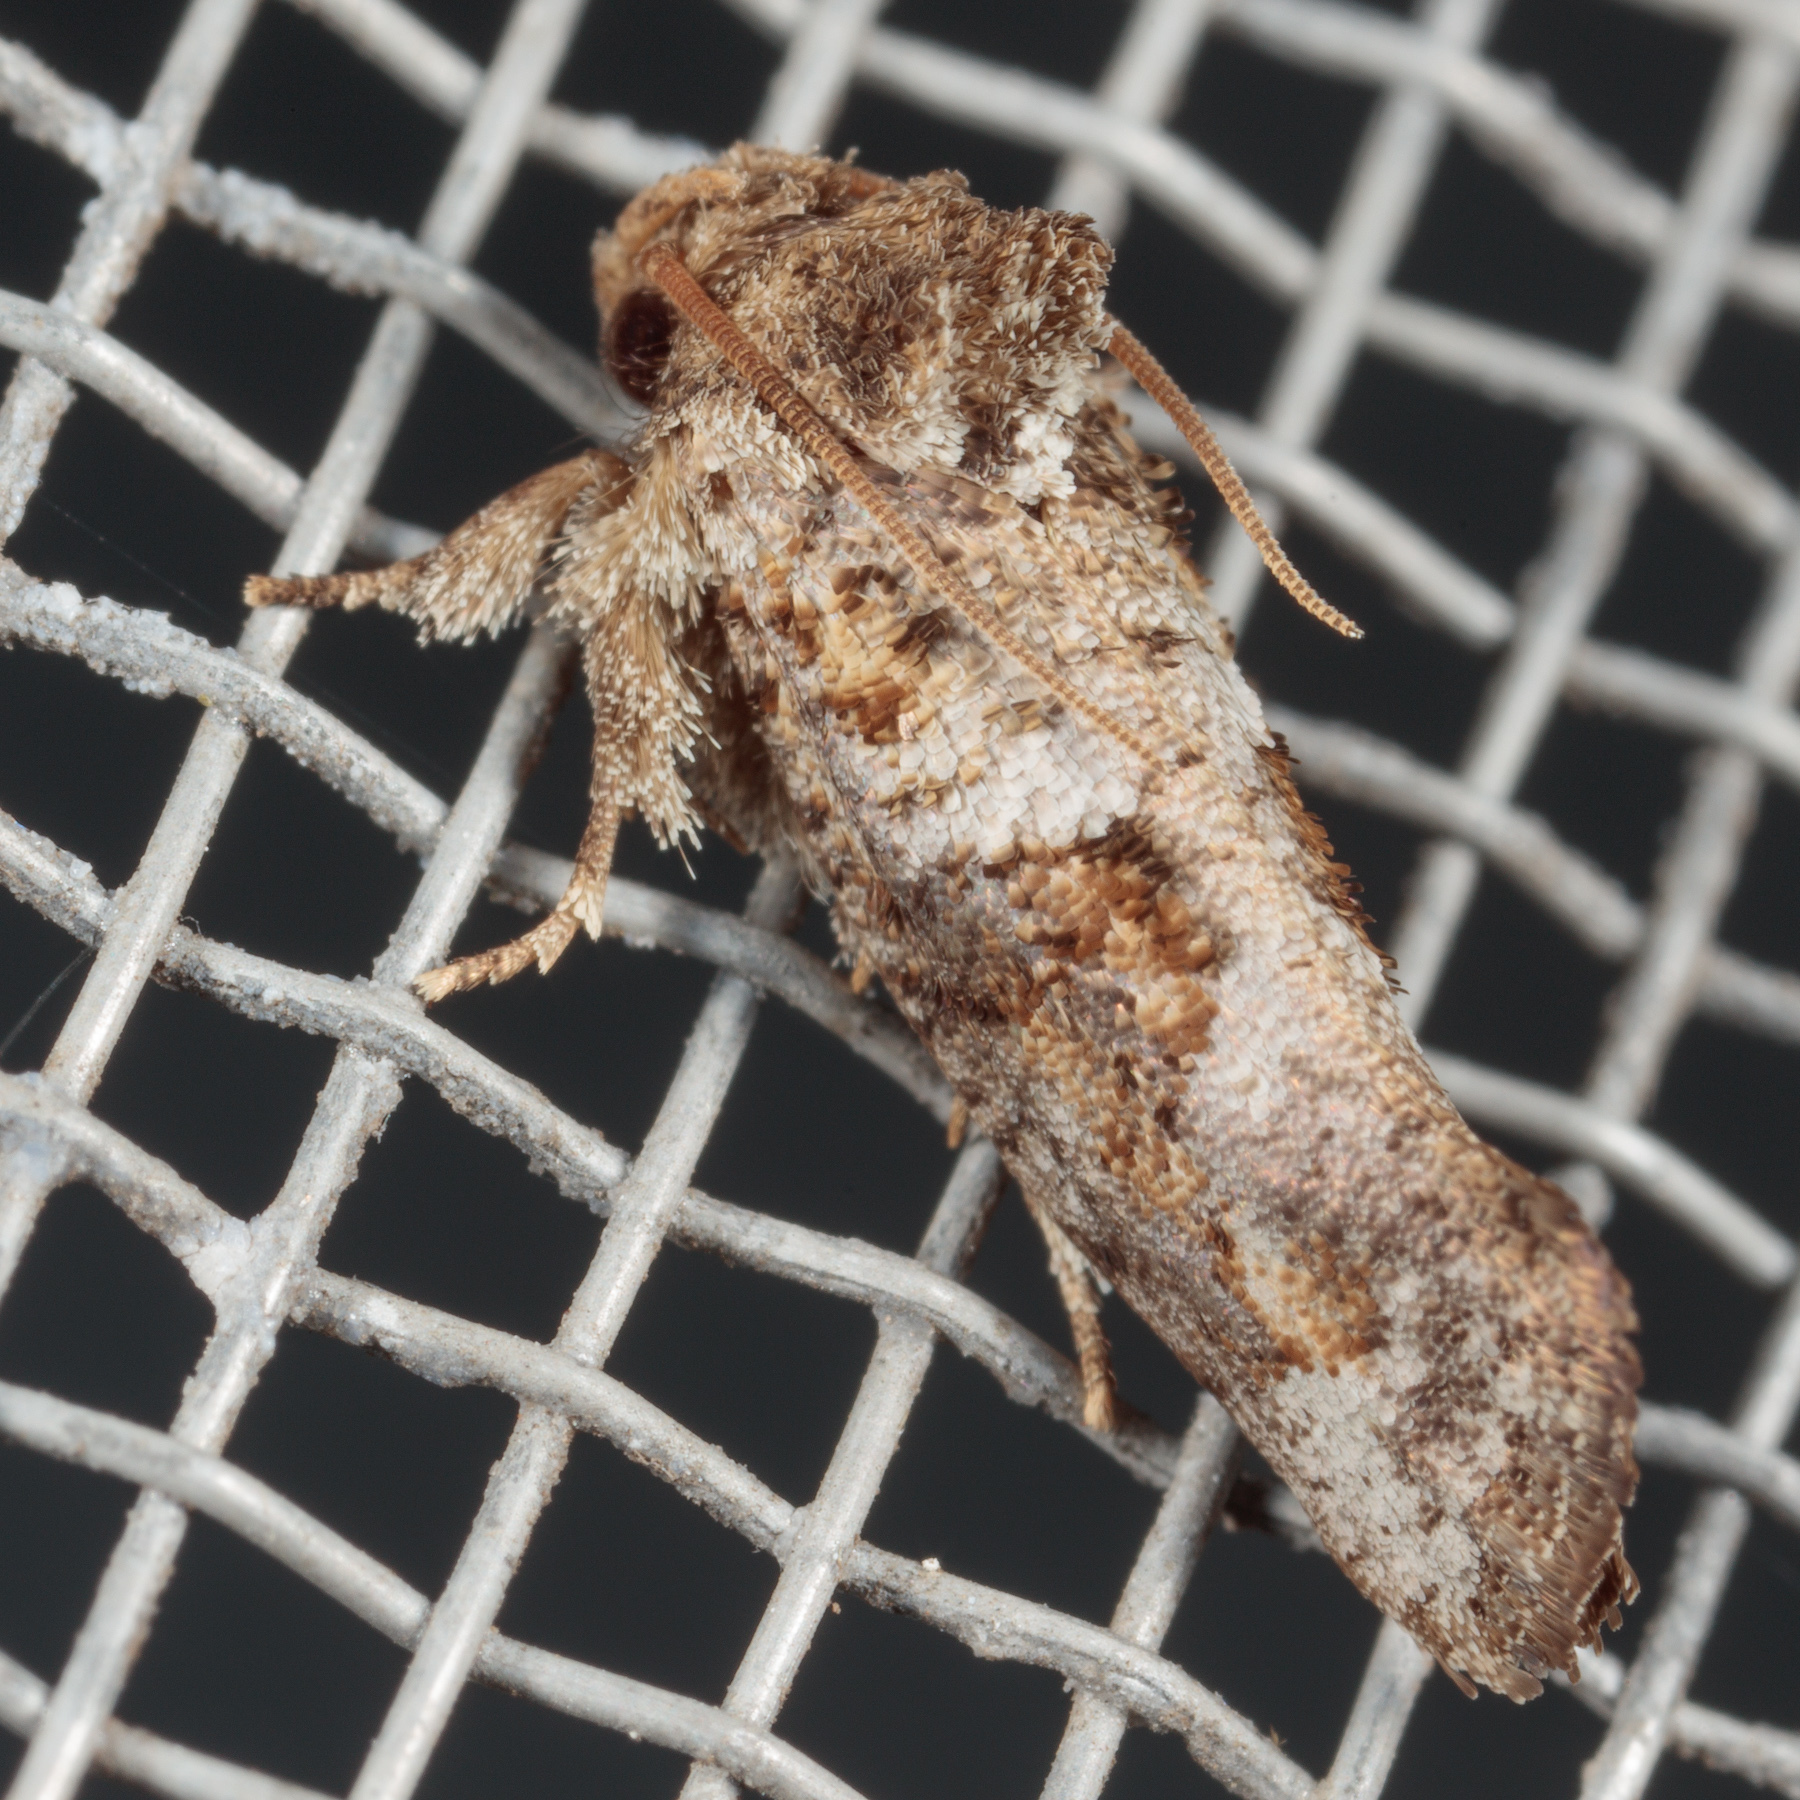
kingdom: Animalia
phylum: Arthropoda
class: Insecta
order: Lepidoptera
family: Tineidae
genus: Acrolophus
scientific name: Acrolophus piger
